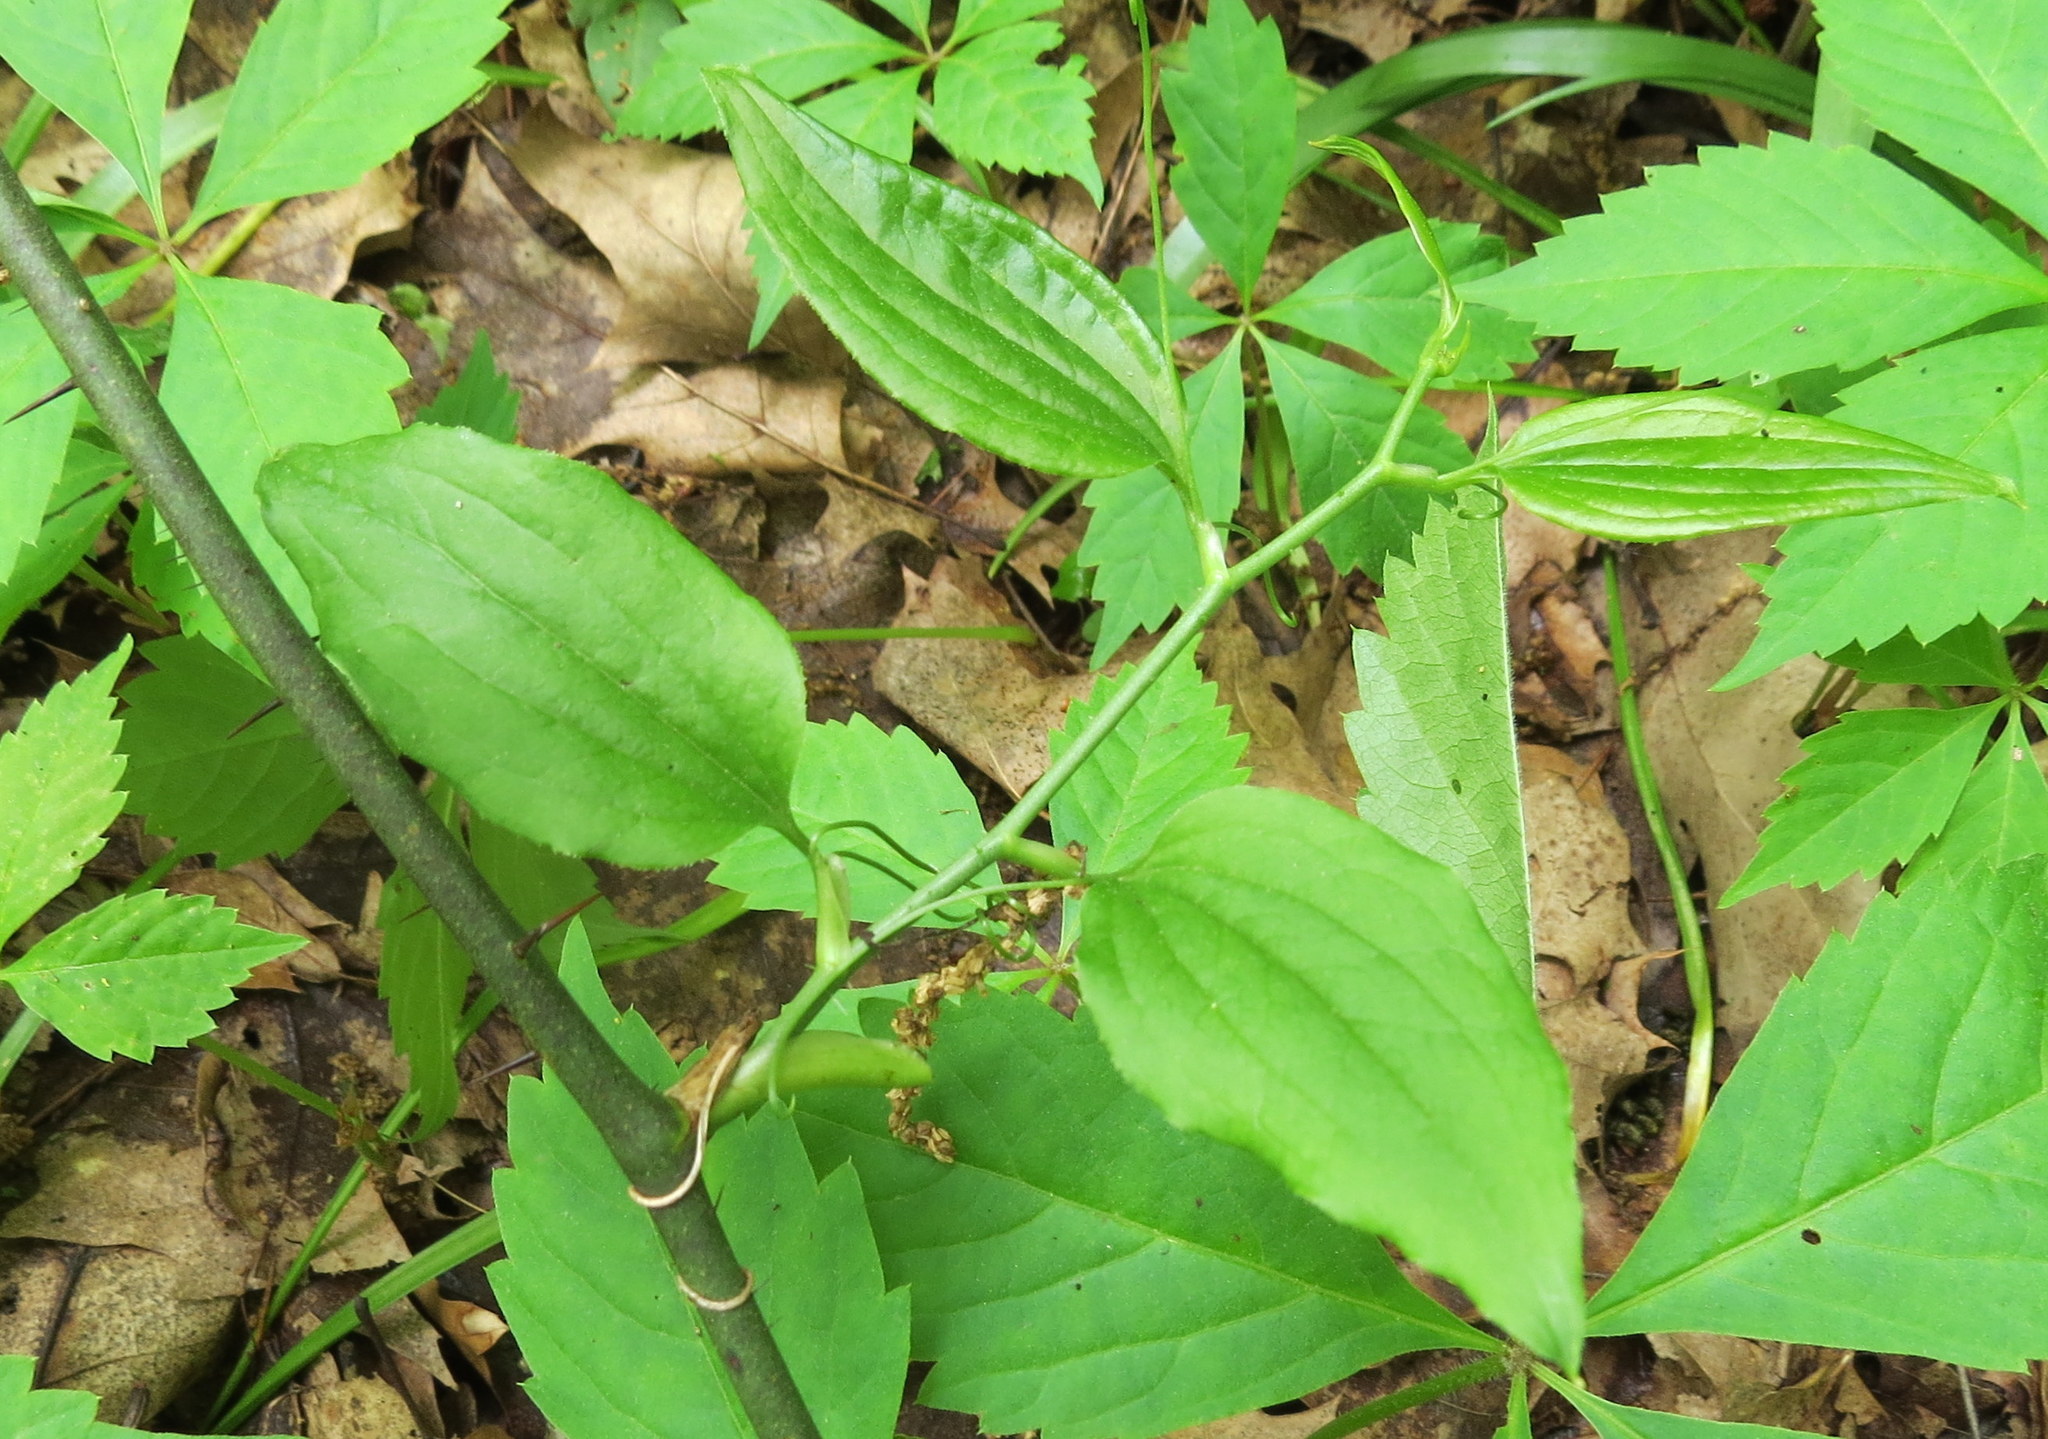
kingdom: Plantae
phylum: Tracheophyta
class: Liliopsida
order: Liliales
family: Smilacaceae
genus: Smilax
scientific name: Smilax tamnoides
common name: Hellfetter
